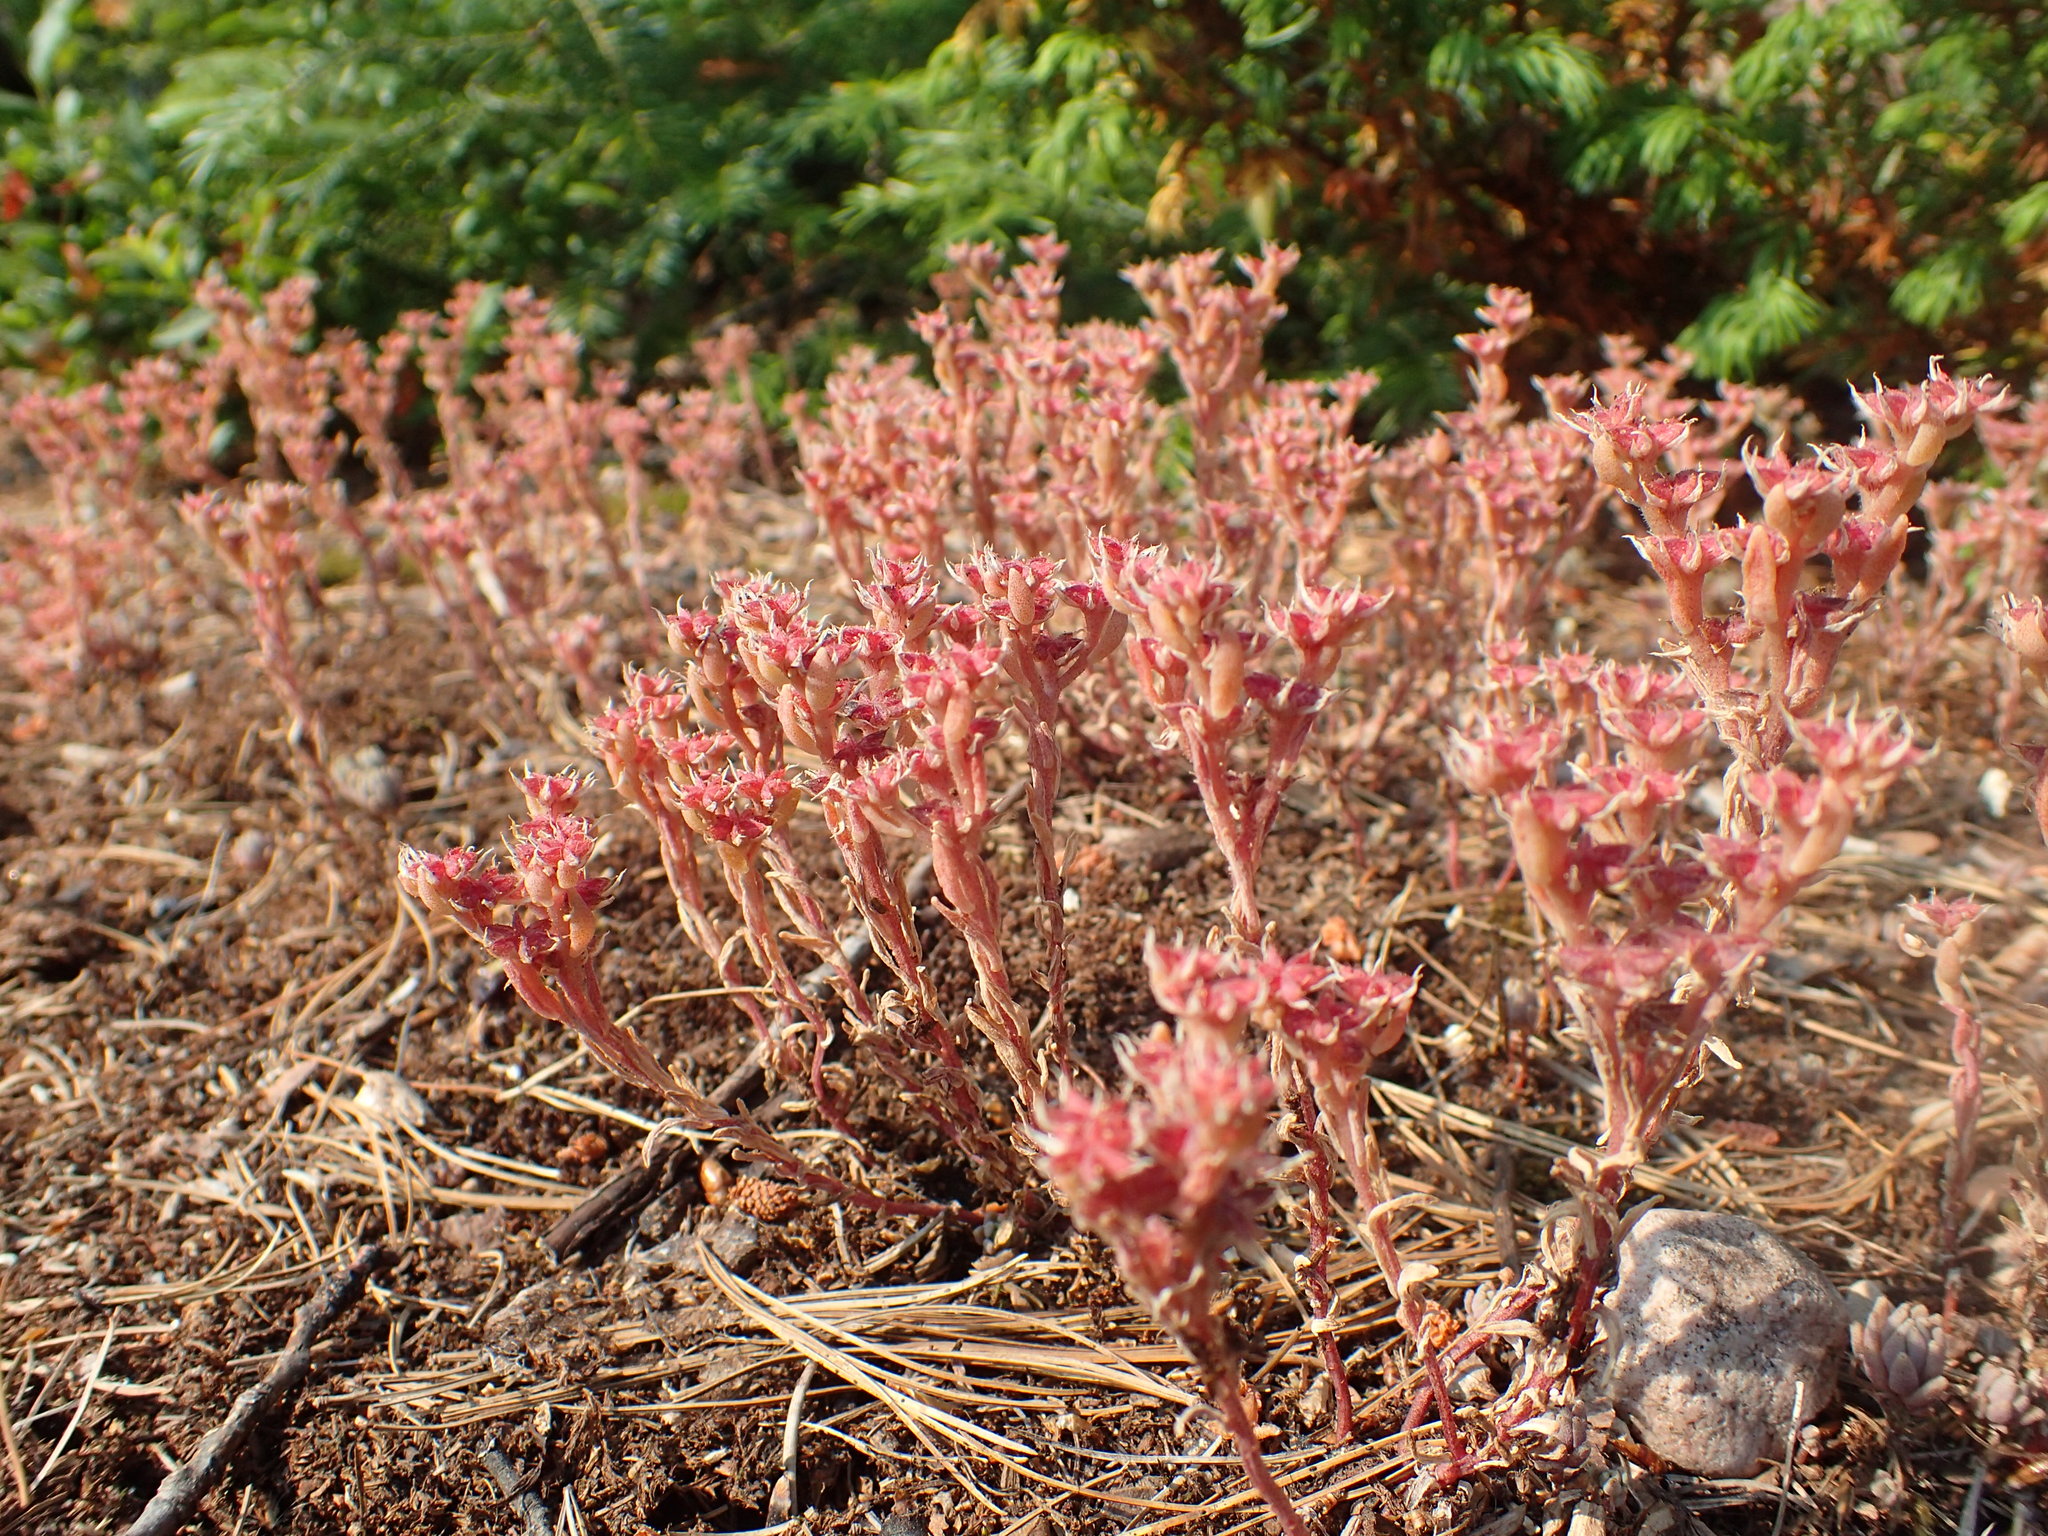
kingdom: Plantae
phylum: Tracheophyta
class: Magnoliopsida
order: Saxifragales
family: Crassulaceae
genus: Sedum
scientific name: Sedum hispanicum
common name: Spanish stonecrop
